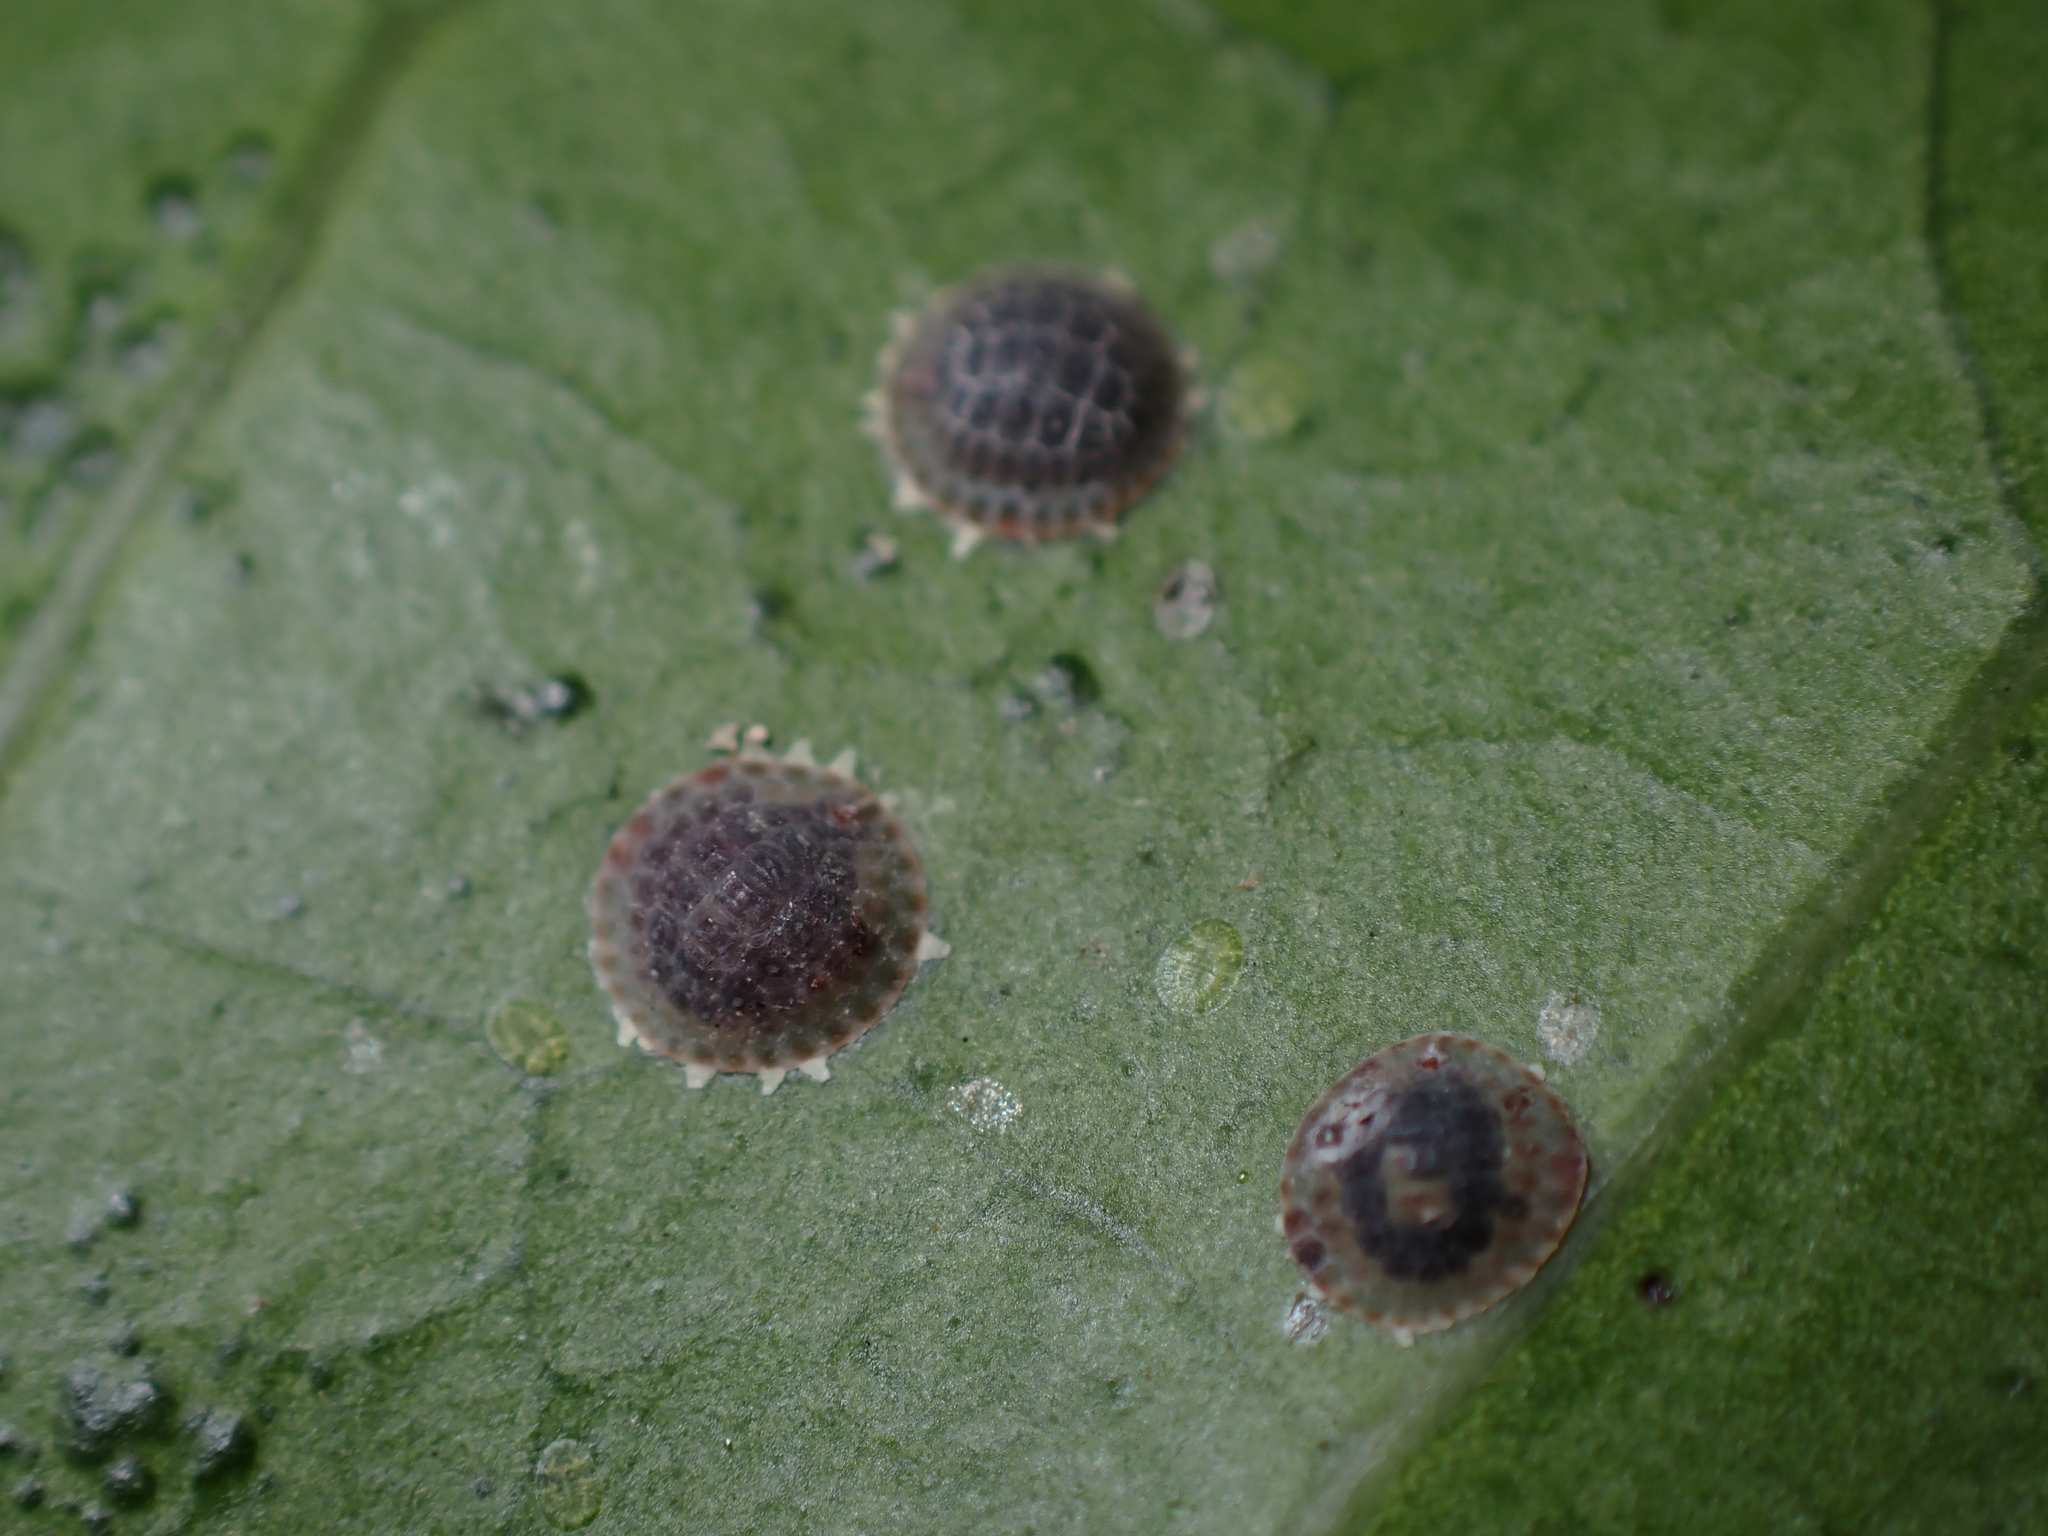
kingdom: Animalia
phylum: Arthropoda
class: Insecta
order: Hemiptera
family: Coccidae
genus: Epelidochiton
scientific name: Epelidochiton piperis
